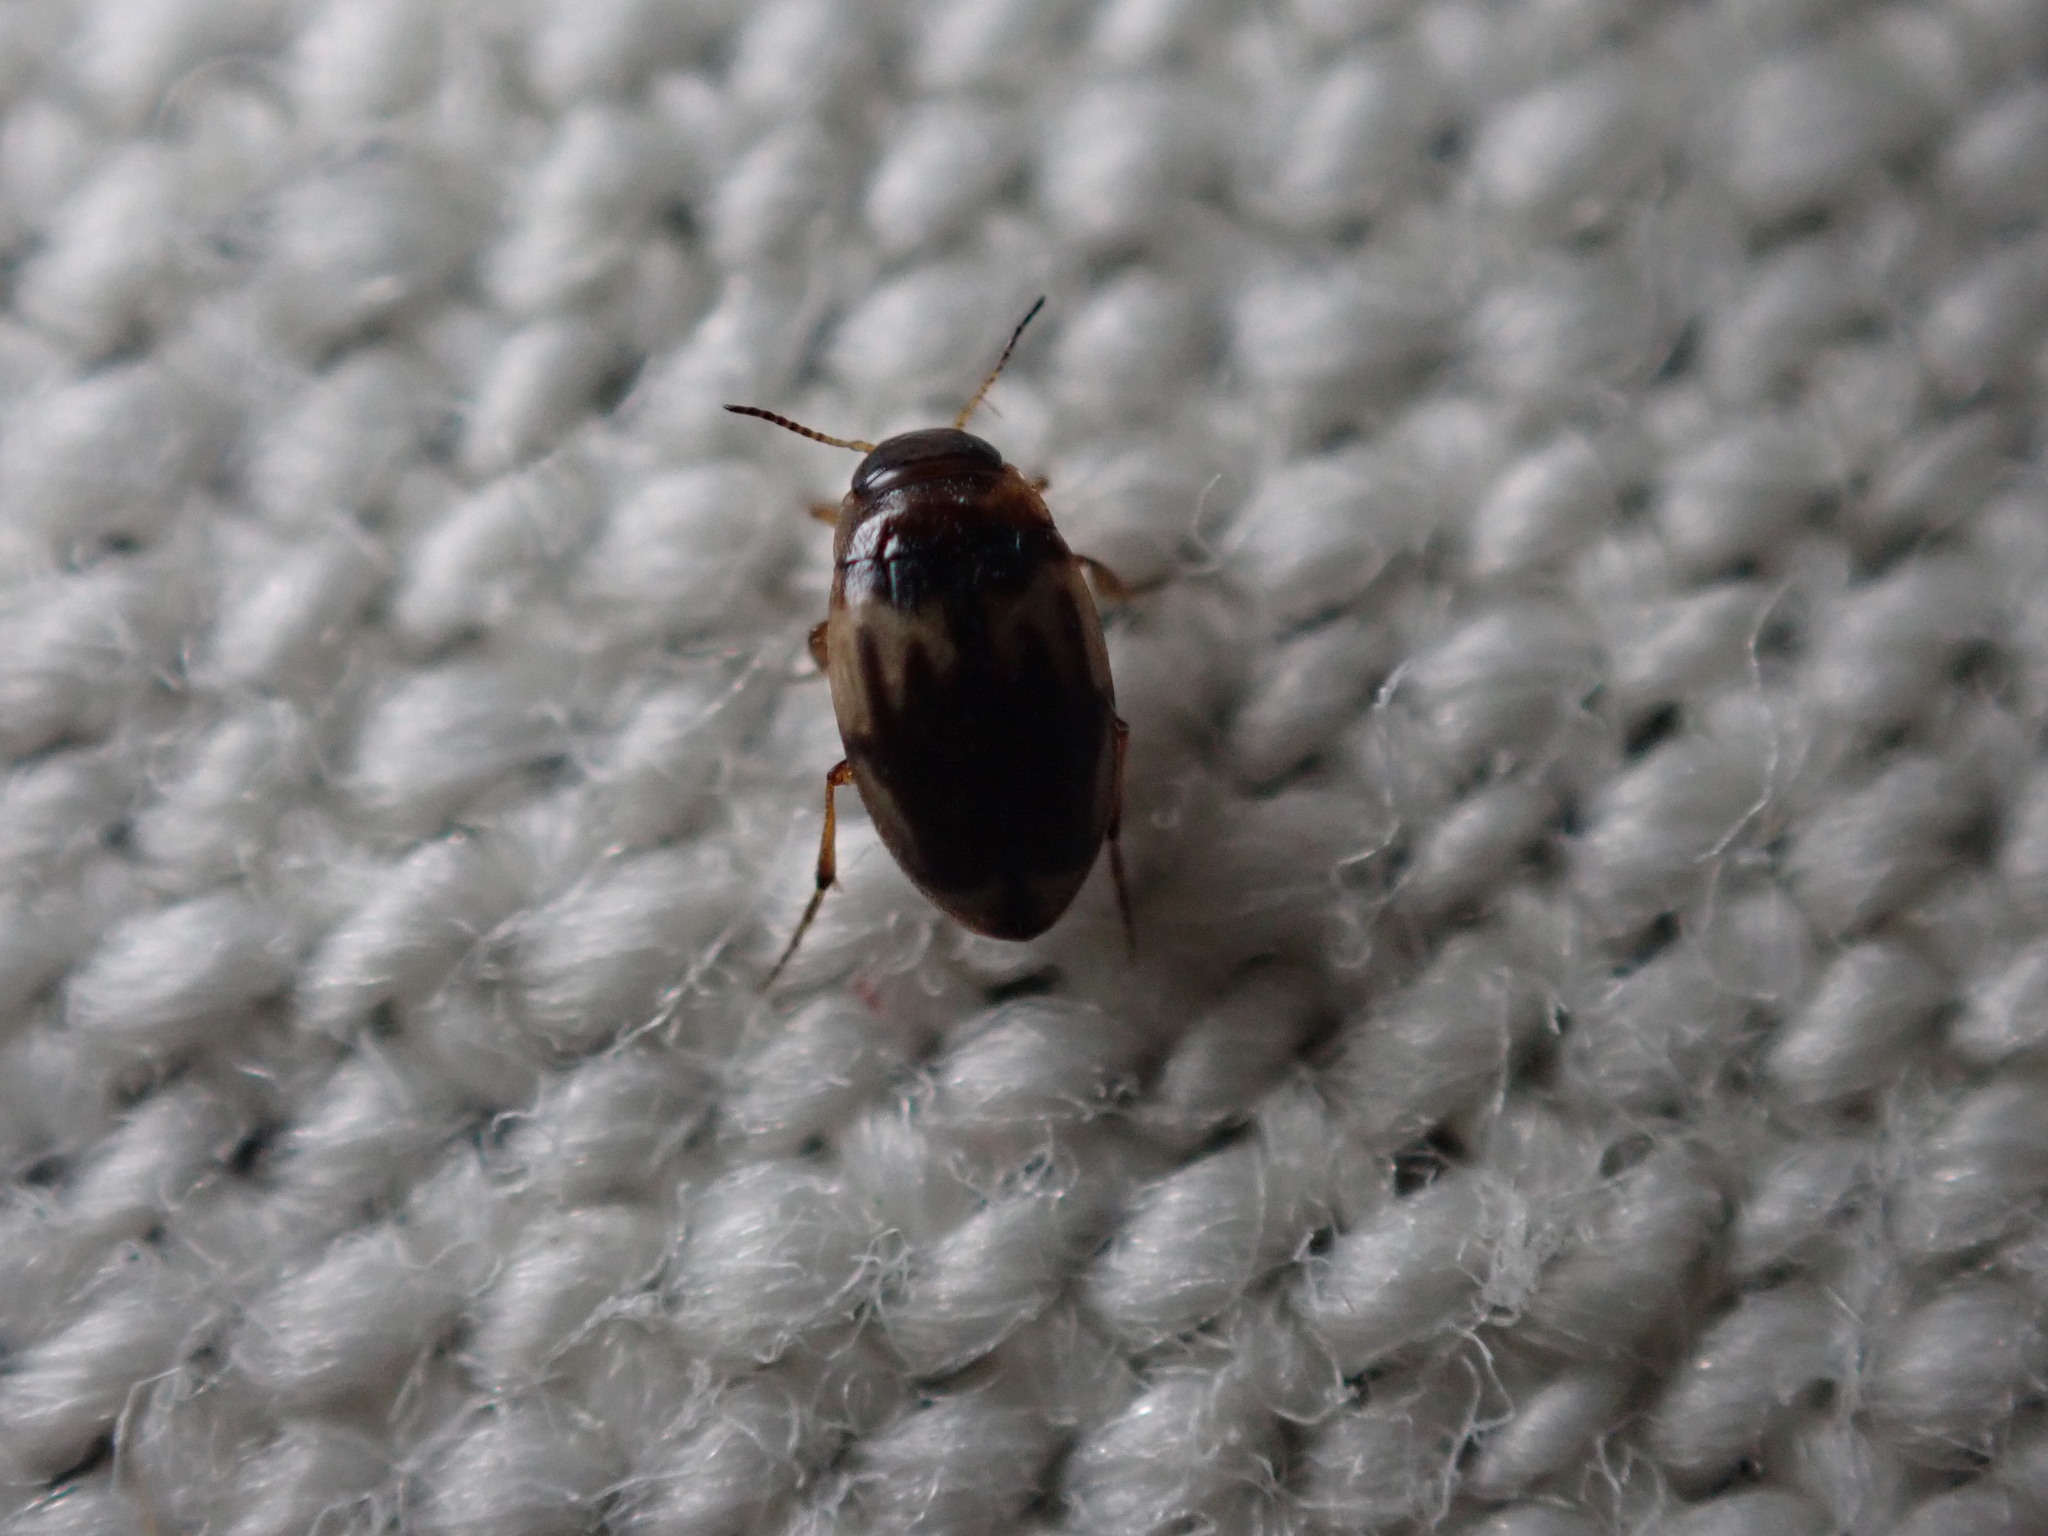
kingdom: Animalia
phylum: Arthropoda
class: Insecta
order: Coleoptera
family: Dytiscidae
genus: Hydroglyphus
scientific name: Hydroglyphus geminus
